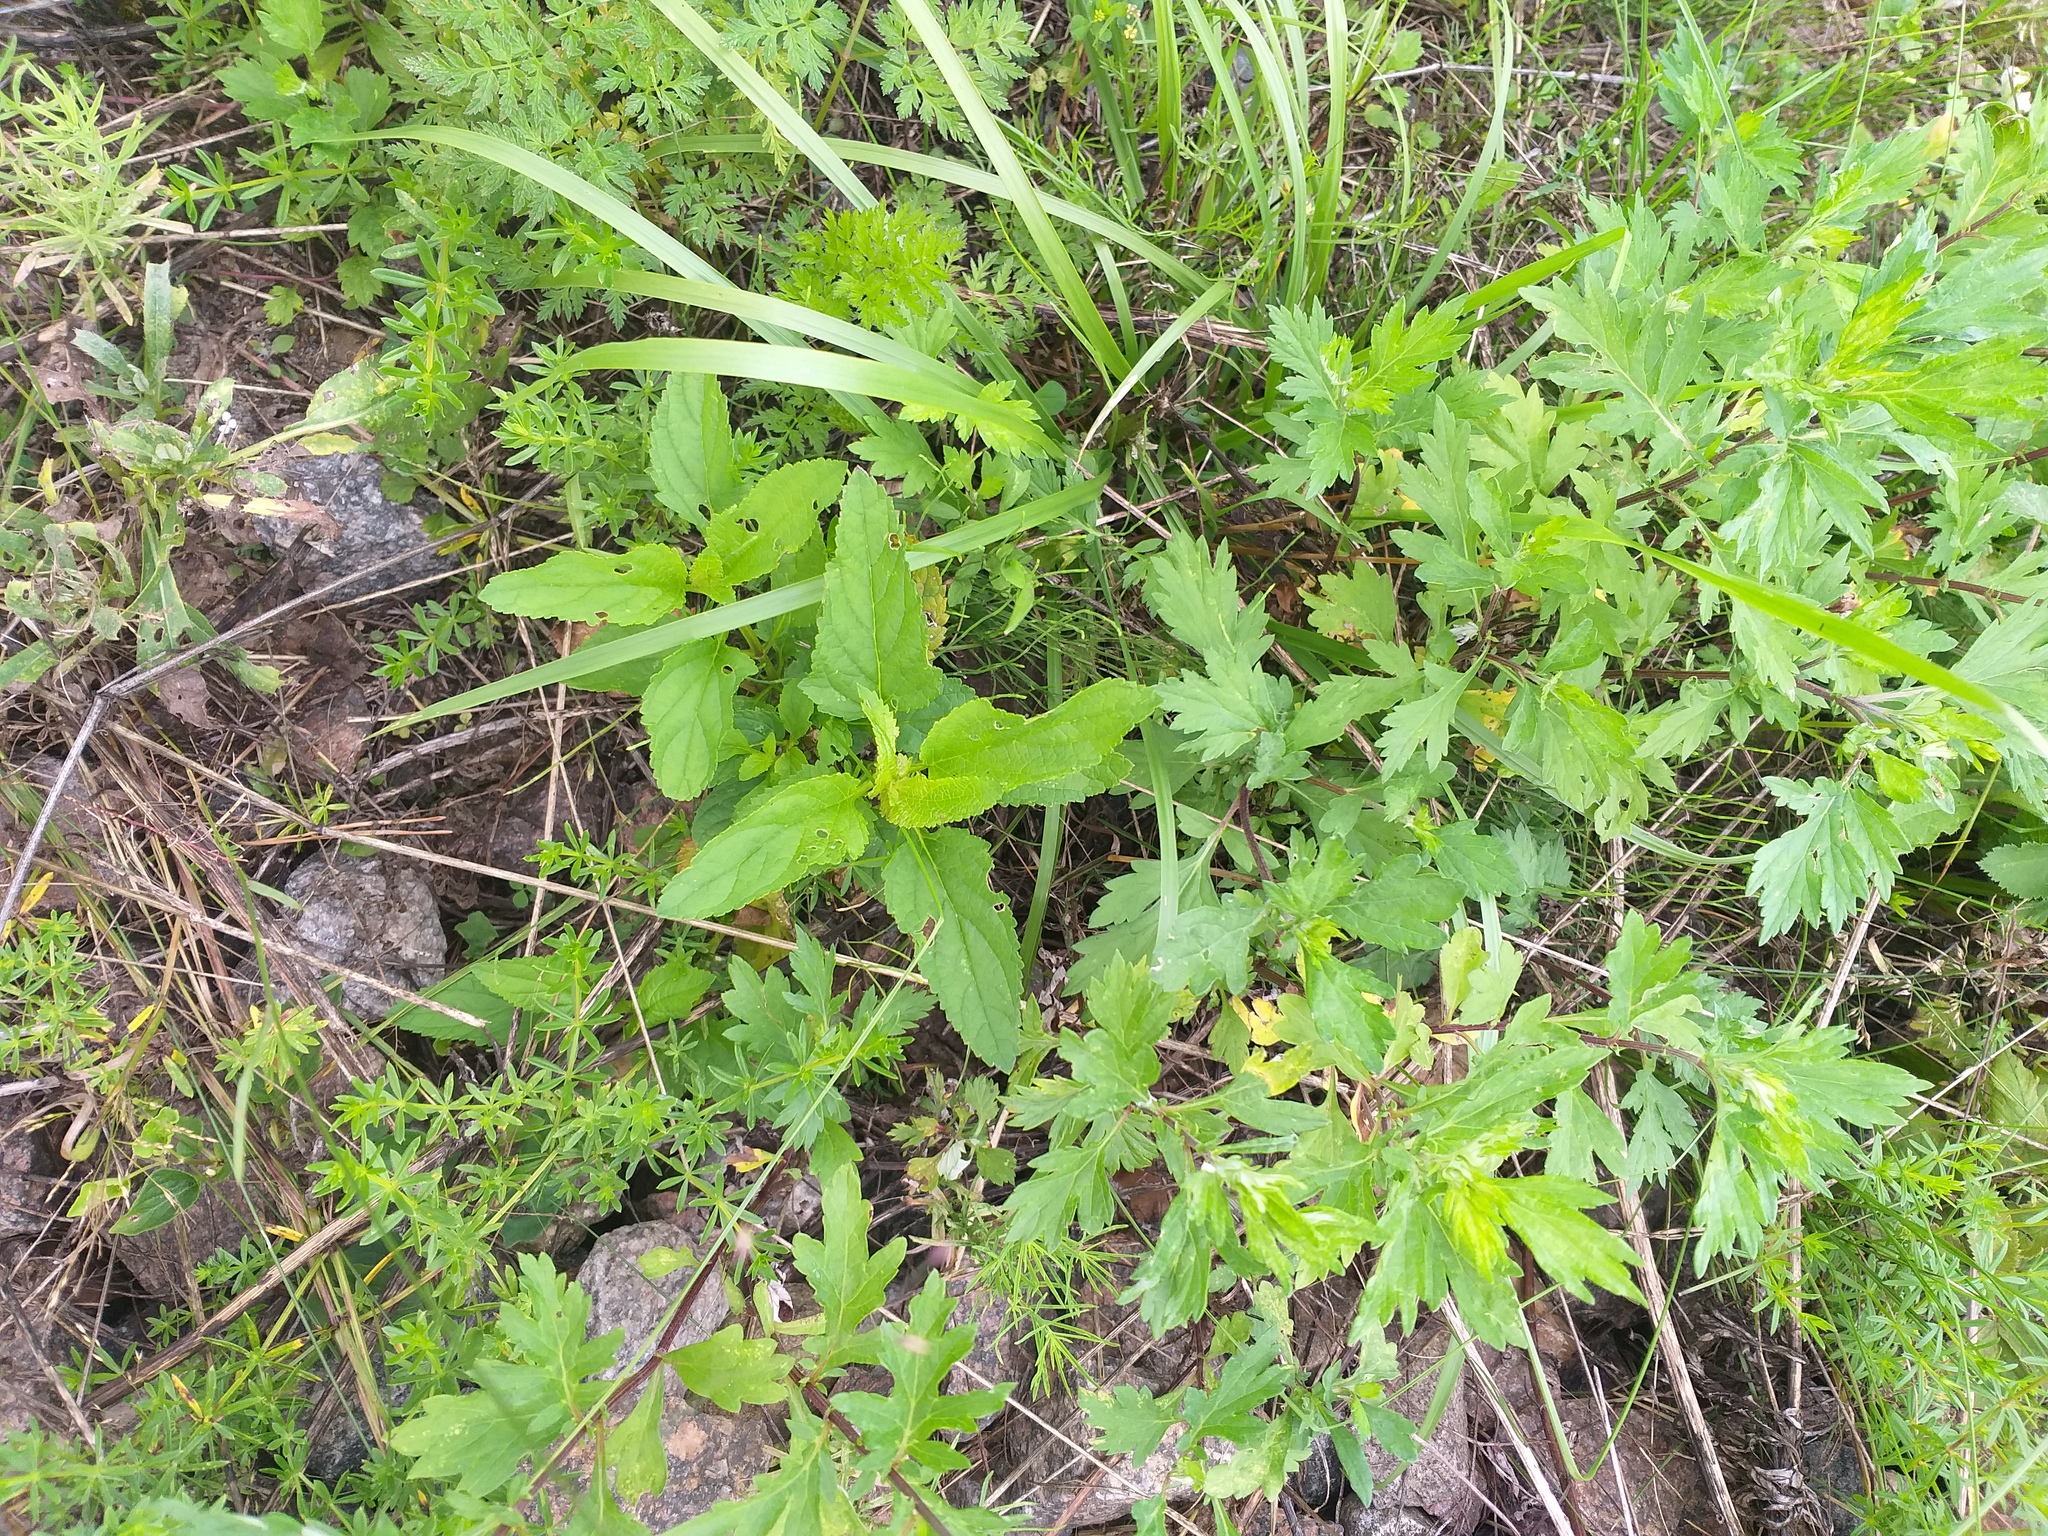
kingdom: Plantae
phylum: Tracheophyta
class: Magnoliopsida
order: Lamiales
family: Scrophulariaceae
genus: Scrophularia
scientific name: Scrophularia nodosa
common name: Common figwort
